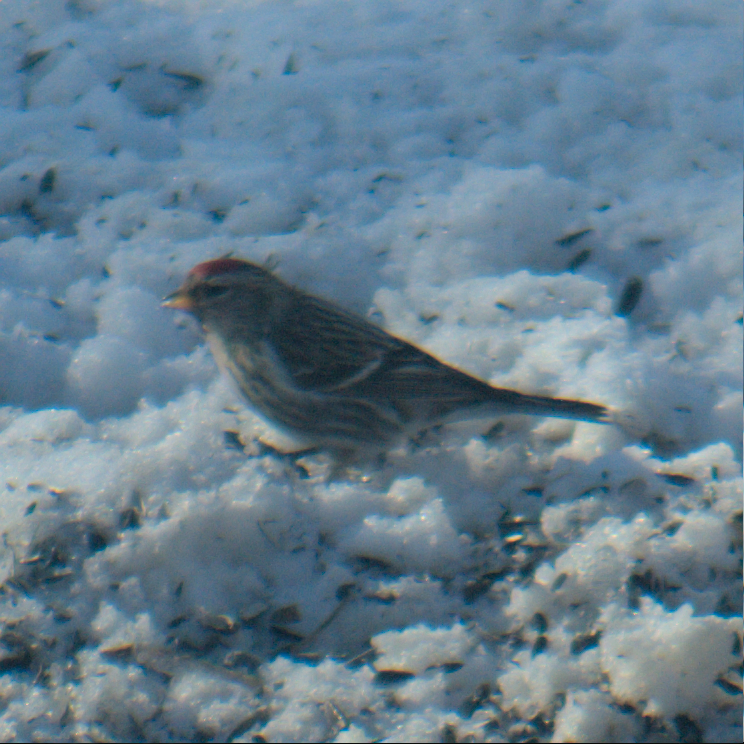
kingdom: Animalia
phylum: Chordata
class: Aves
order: Passeriformes
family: Fringillidae
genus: Acanthis
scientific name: Acanthis flammea
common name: Common redpoll
